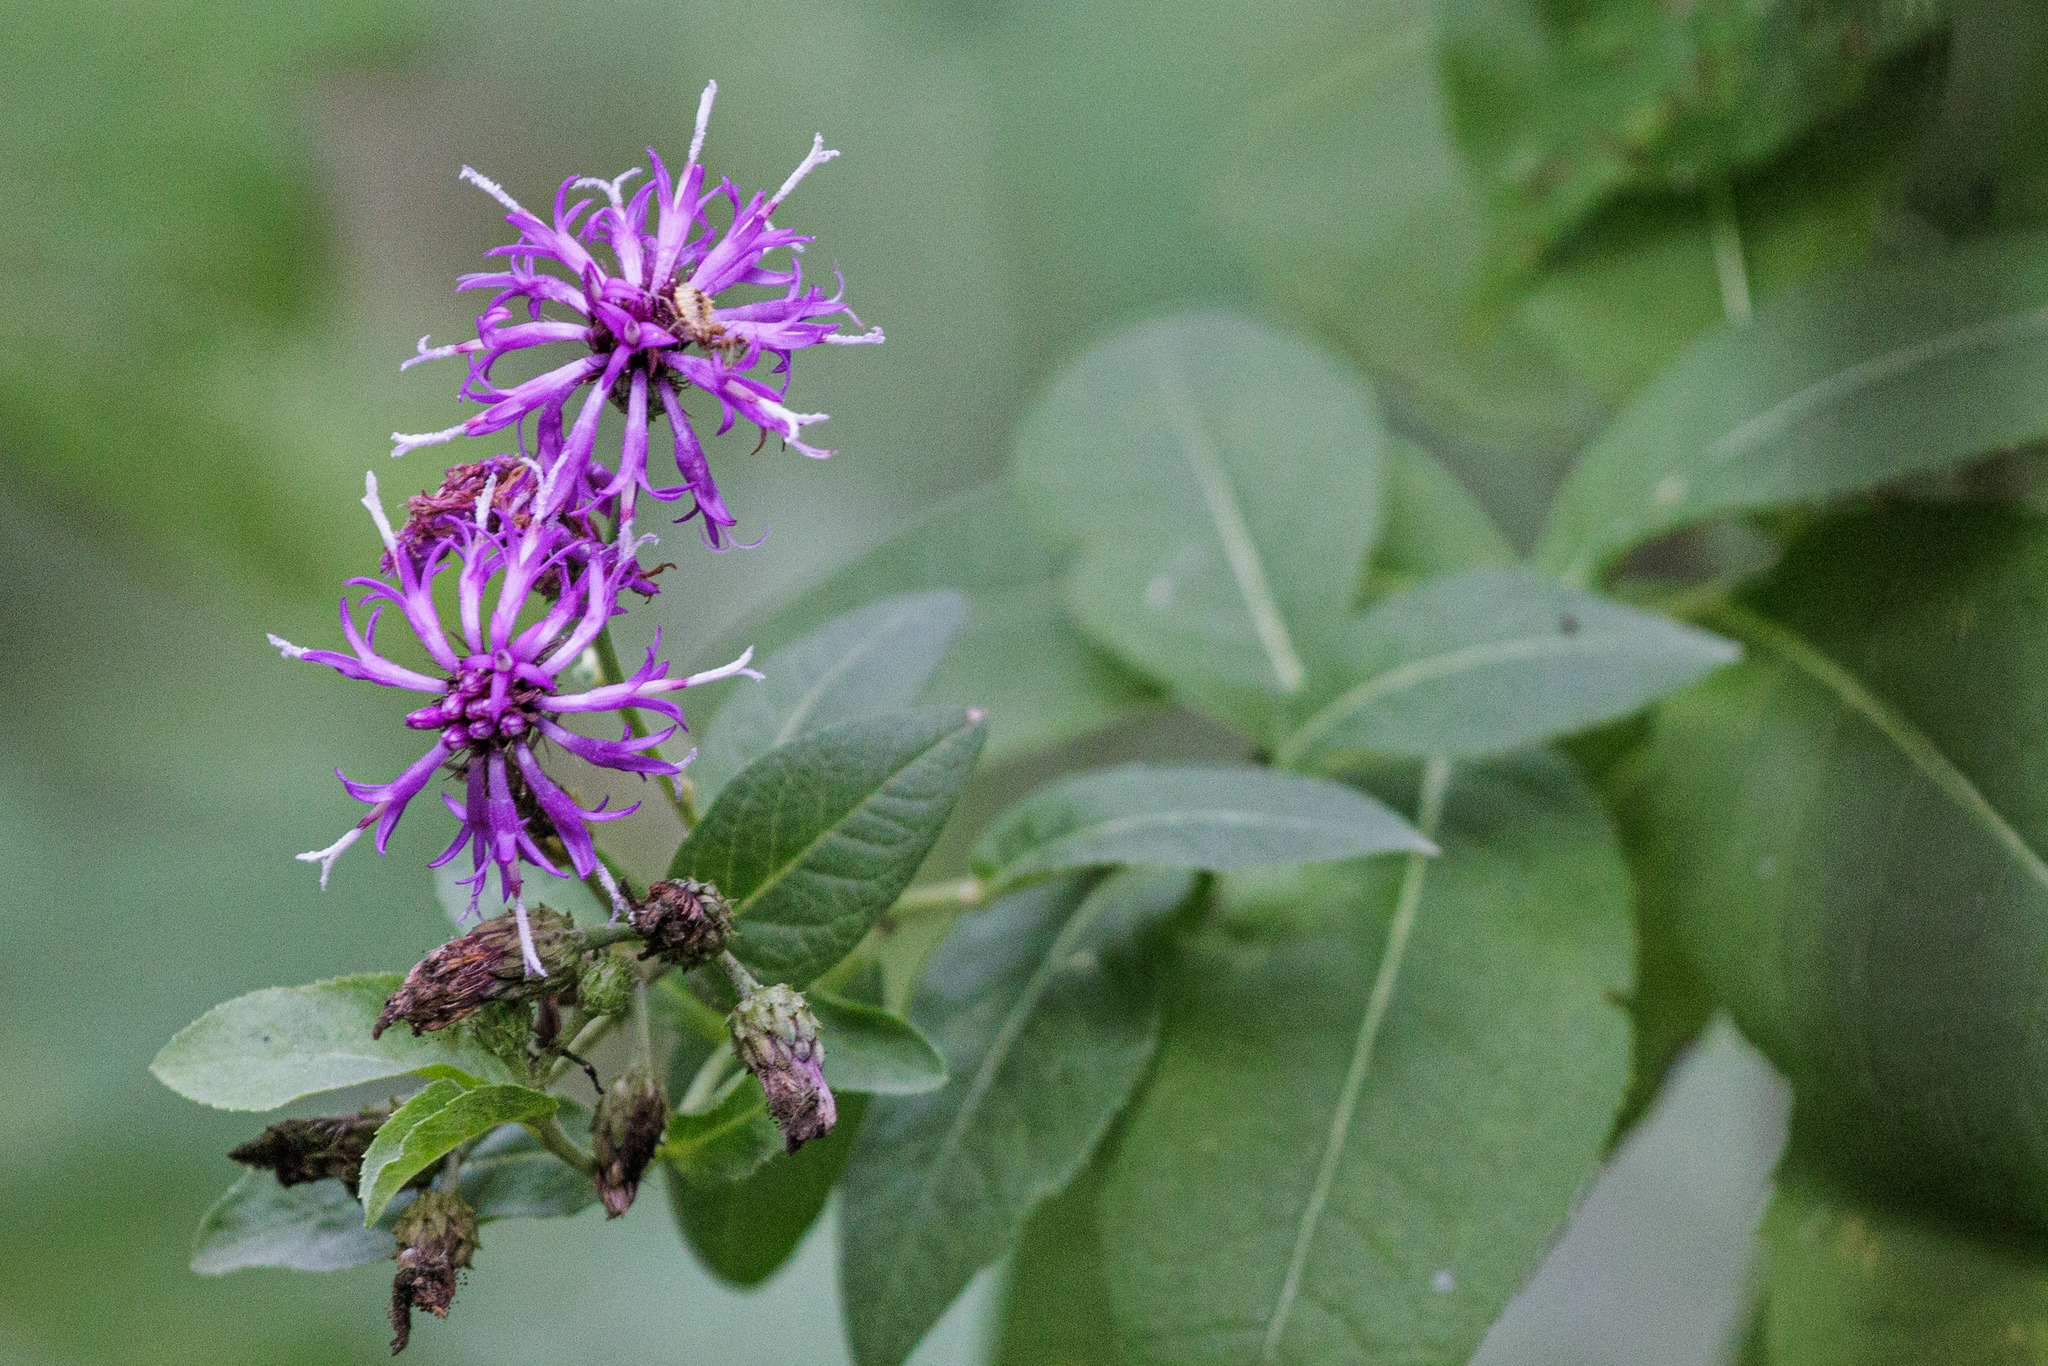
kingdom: Plantae
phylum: Tracheophyta
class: Magnoliopsida
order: Asterales
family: Asteraceae
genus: Vernonia
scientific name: Vernonia baldwinii
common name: Western ironweed
